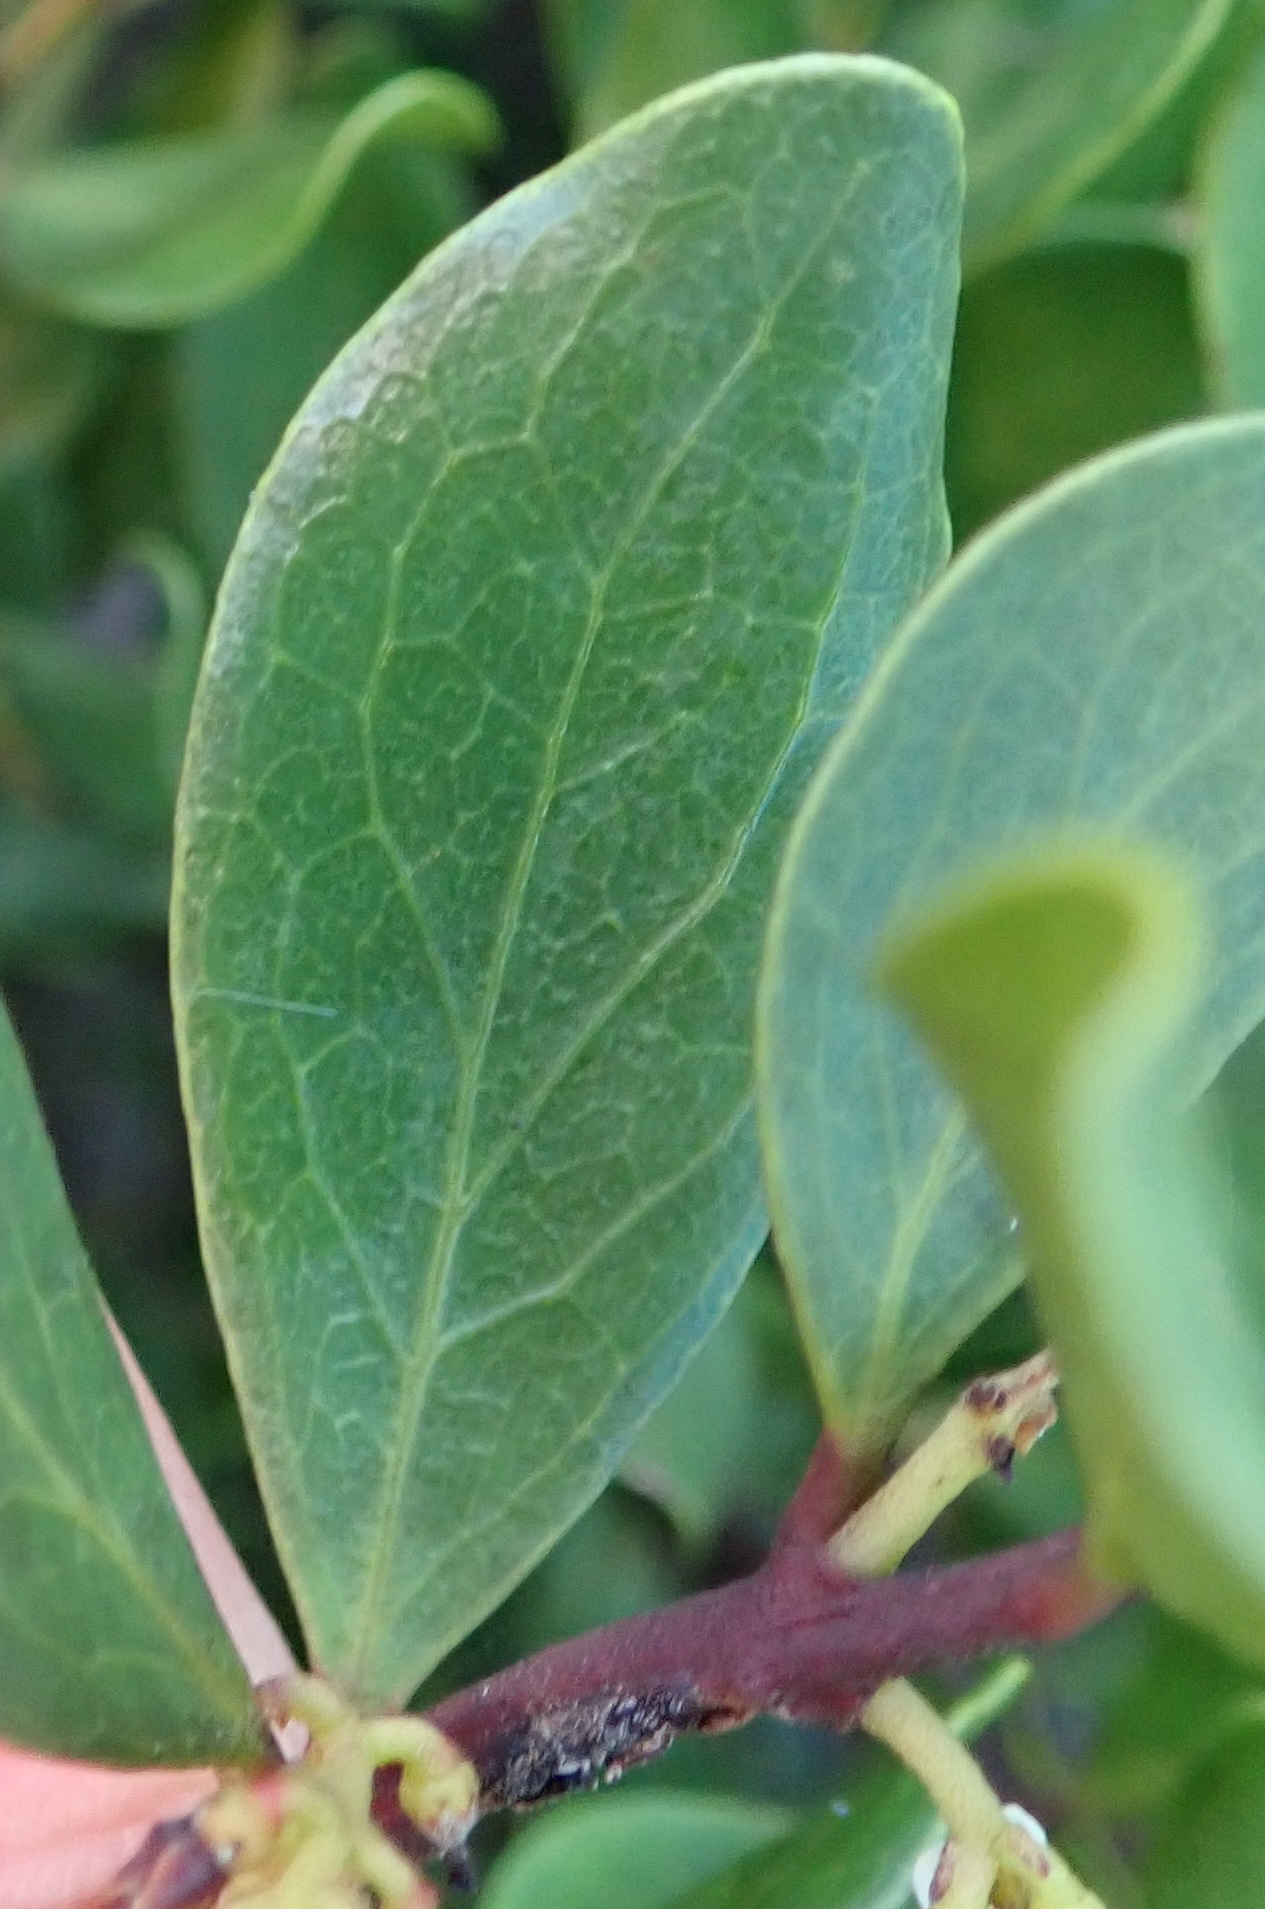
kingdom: Plantae
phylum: Tracheophyta
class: Magnoliopsida
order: Ericales
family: Ebenaceae
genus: Euclea
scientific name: Euclea racemosa
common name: Dune guarri
